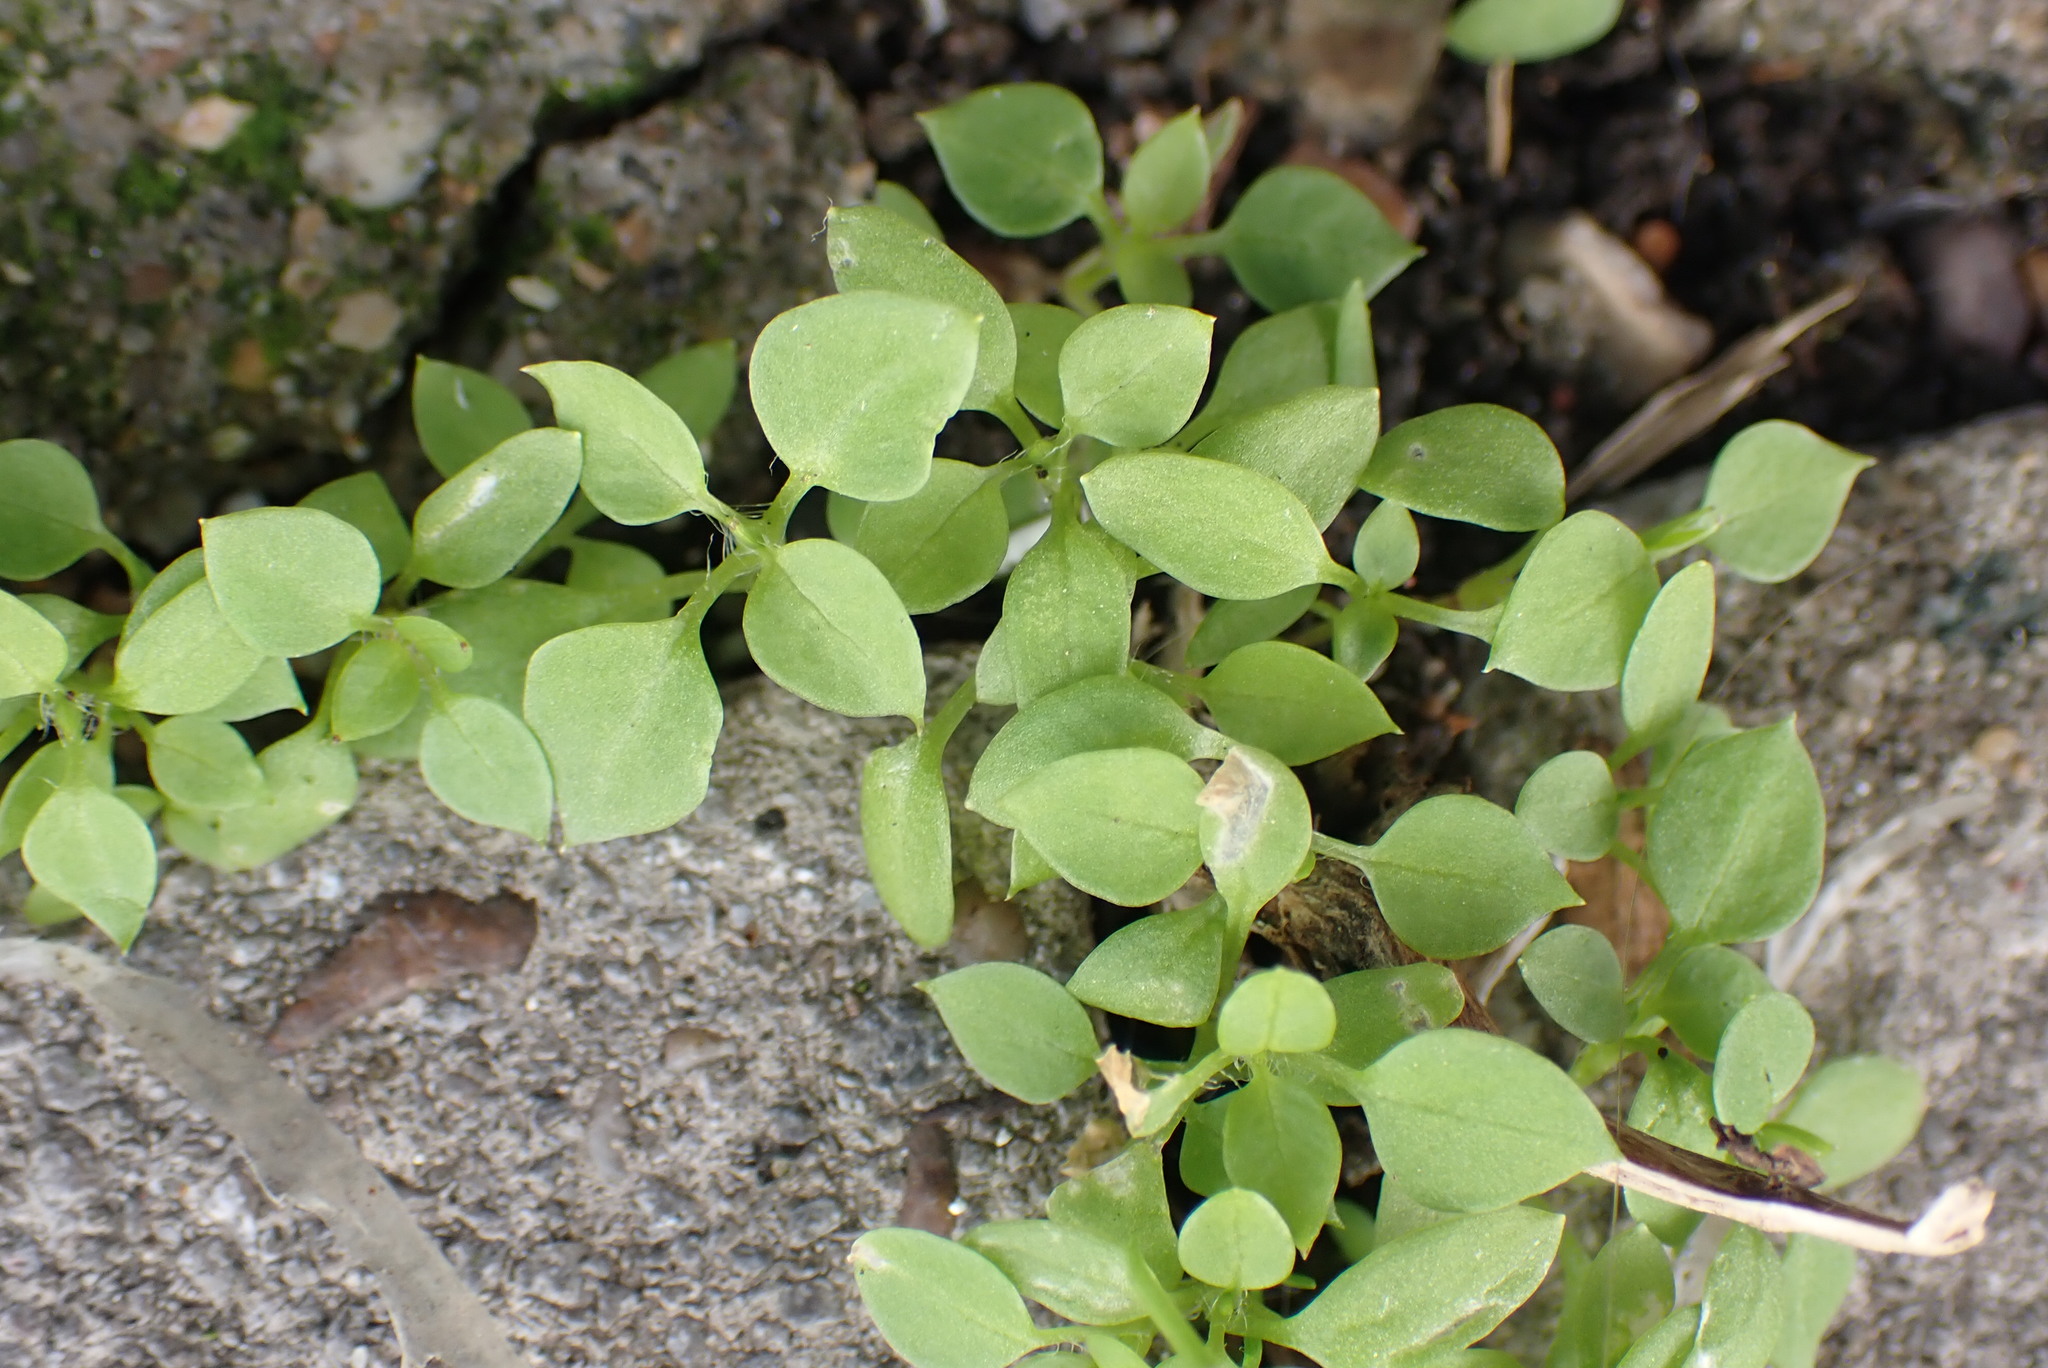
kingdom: Plantae
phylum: Tracheophyta
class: Magnoliopsida
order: Caryophyllales
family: Caryophyllaceae
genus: Stellaria
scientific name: Stellaria media
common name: Common chickweed
